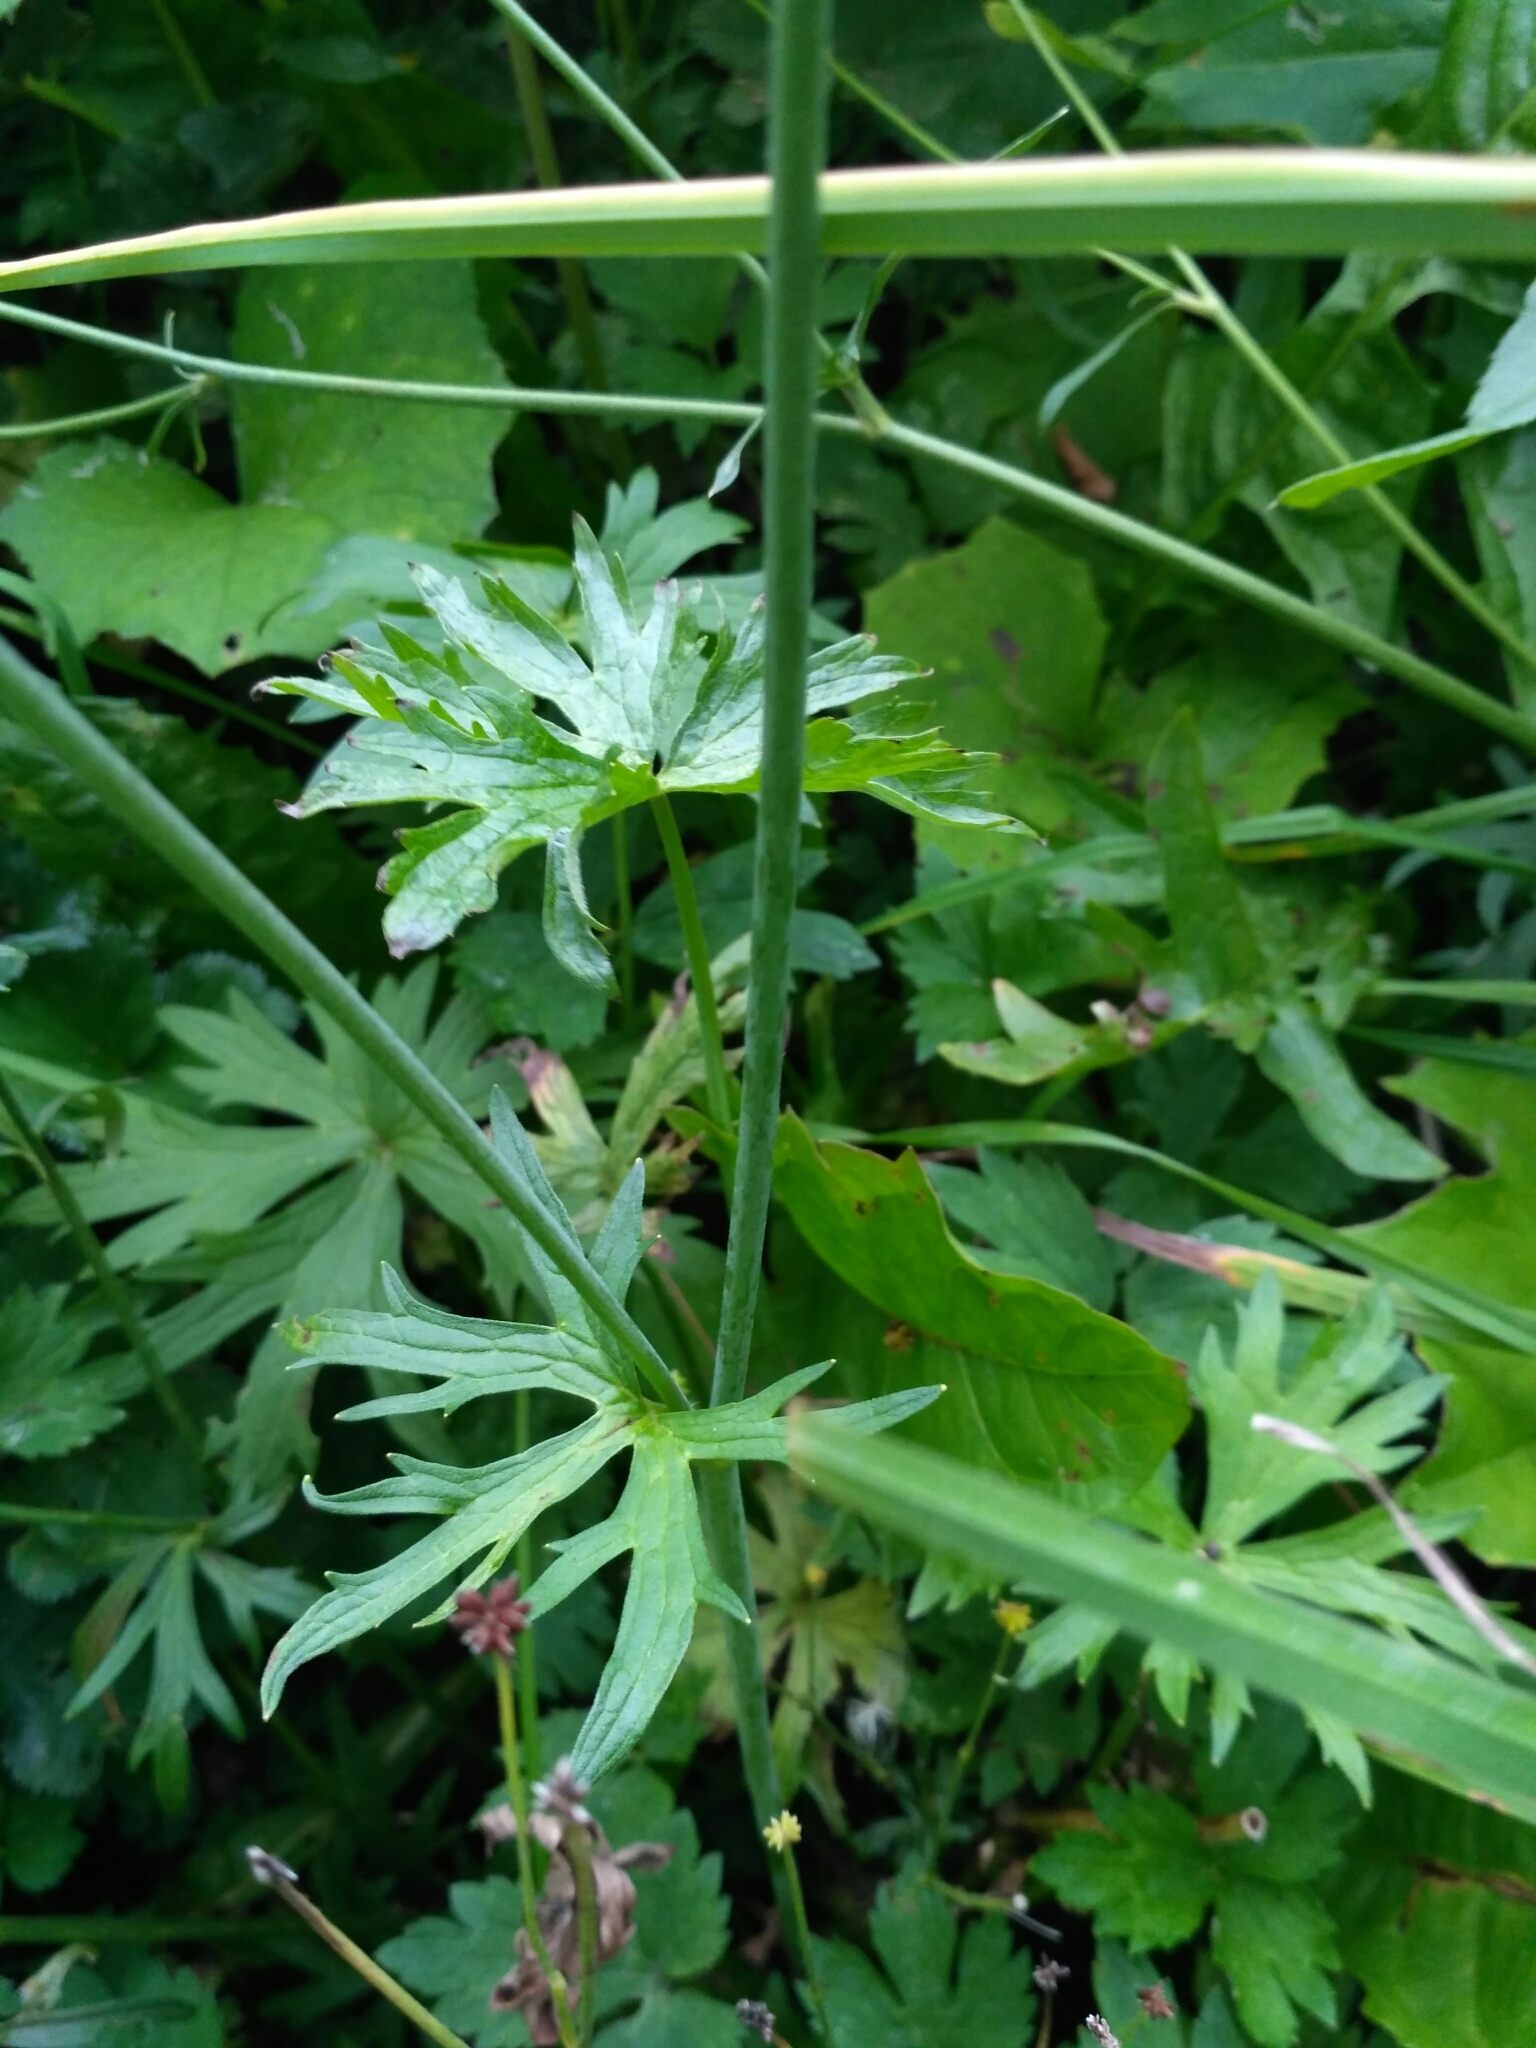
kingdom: Plantae
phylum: Tracheophyta
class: Magnoliopsida
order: Ranunculales
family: Ranunculaceae
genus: Ranunculus
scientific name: Ranunculus acris
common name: Meadow buttercup
